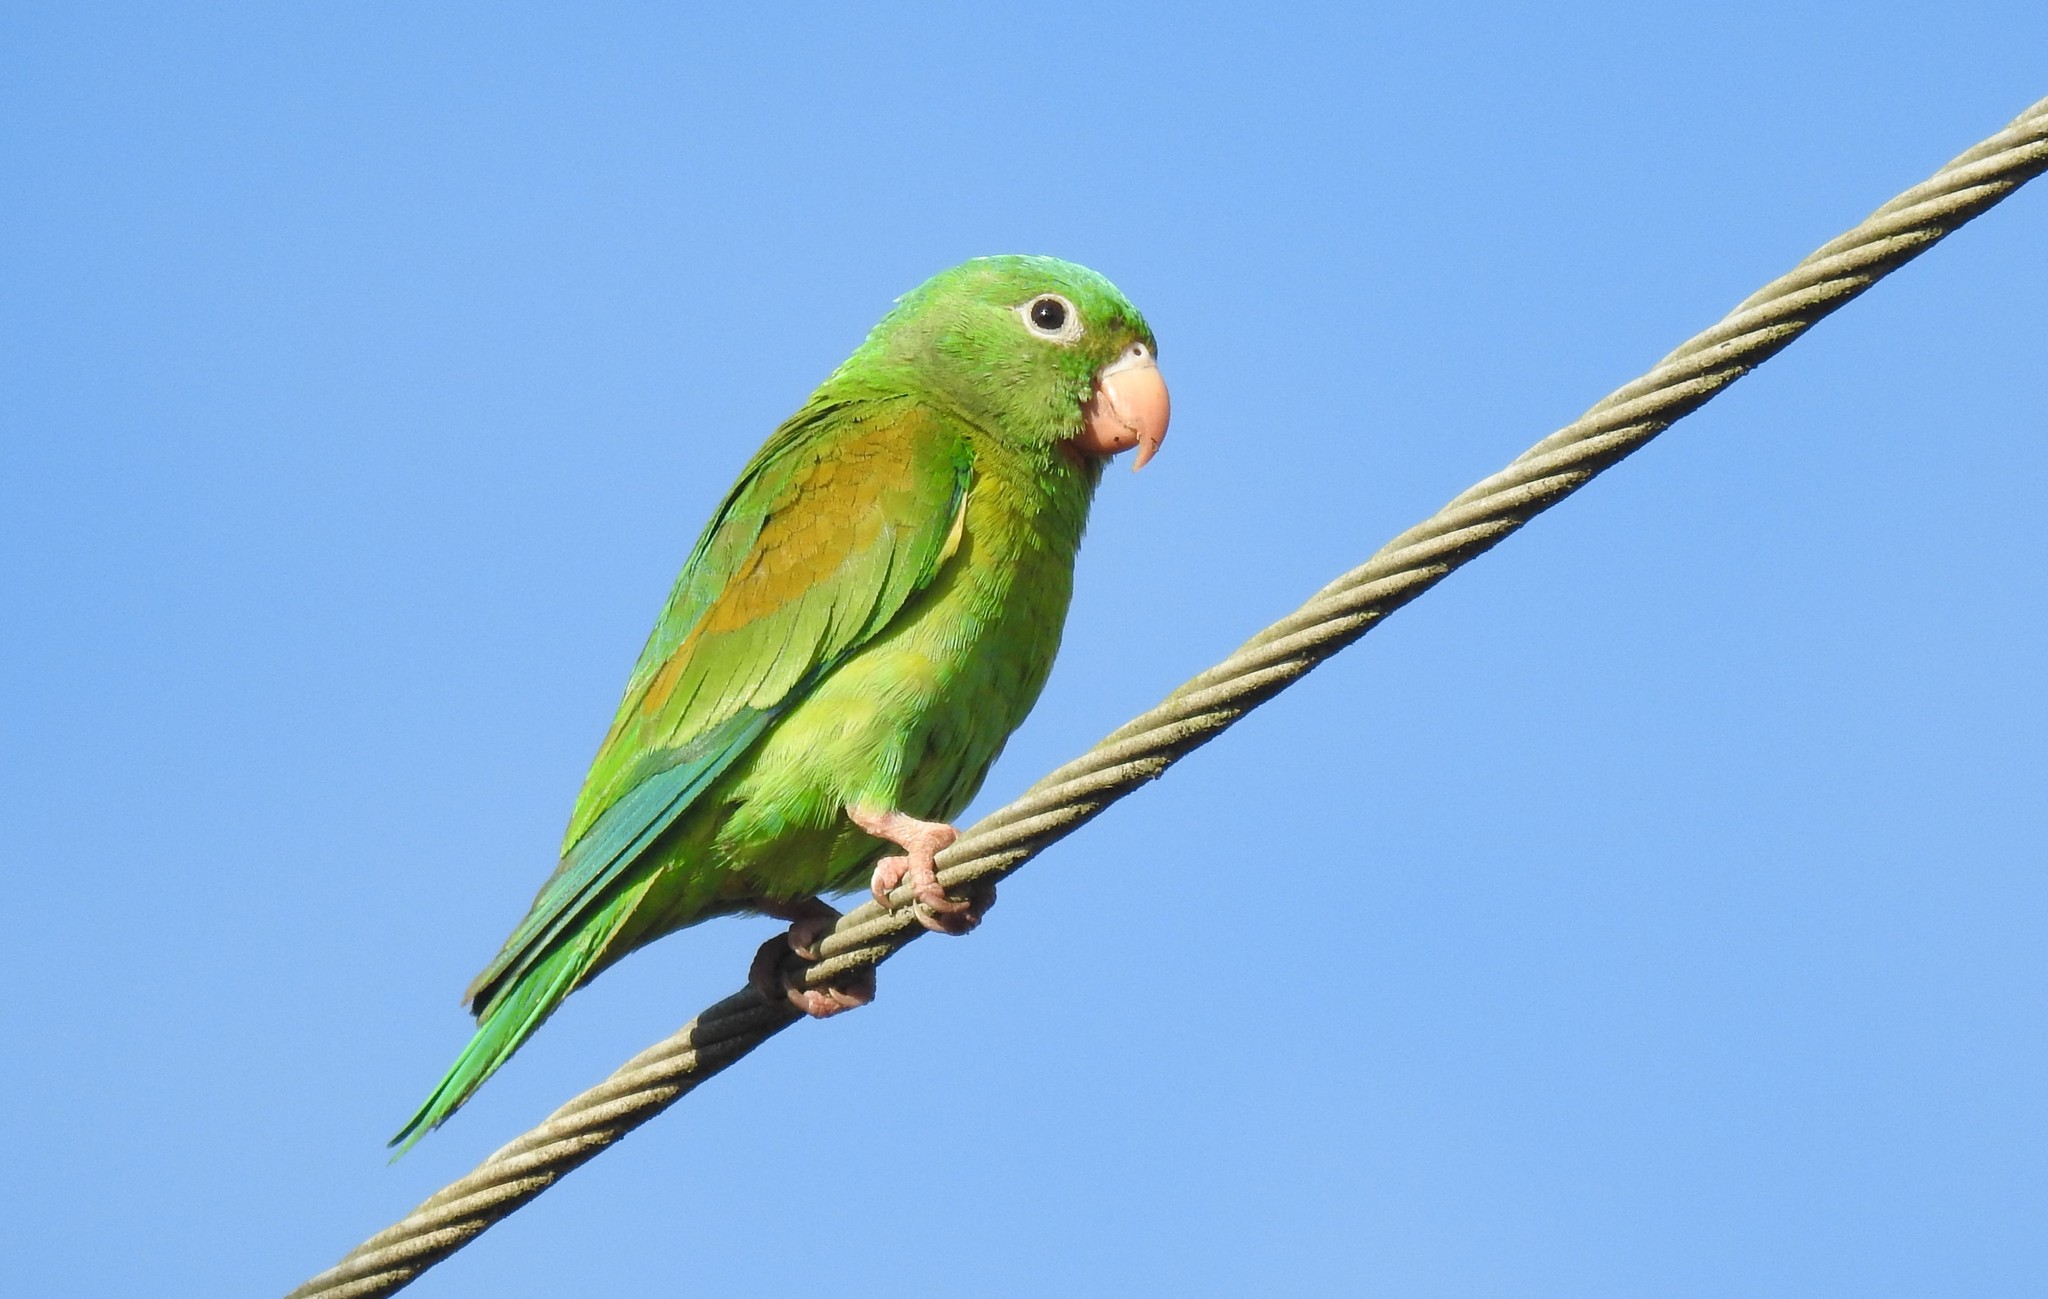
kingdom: Animalia
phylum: Chordata
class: Aves
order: Psittaciformes
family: Psittacidae
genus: Brotogeris
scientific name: Brotogeris jugularis
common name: Orange-chinned parakeet
